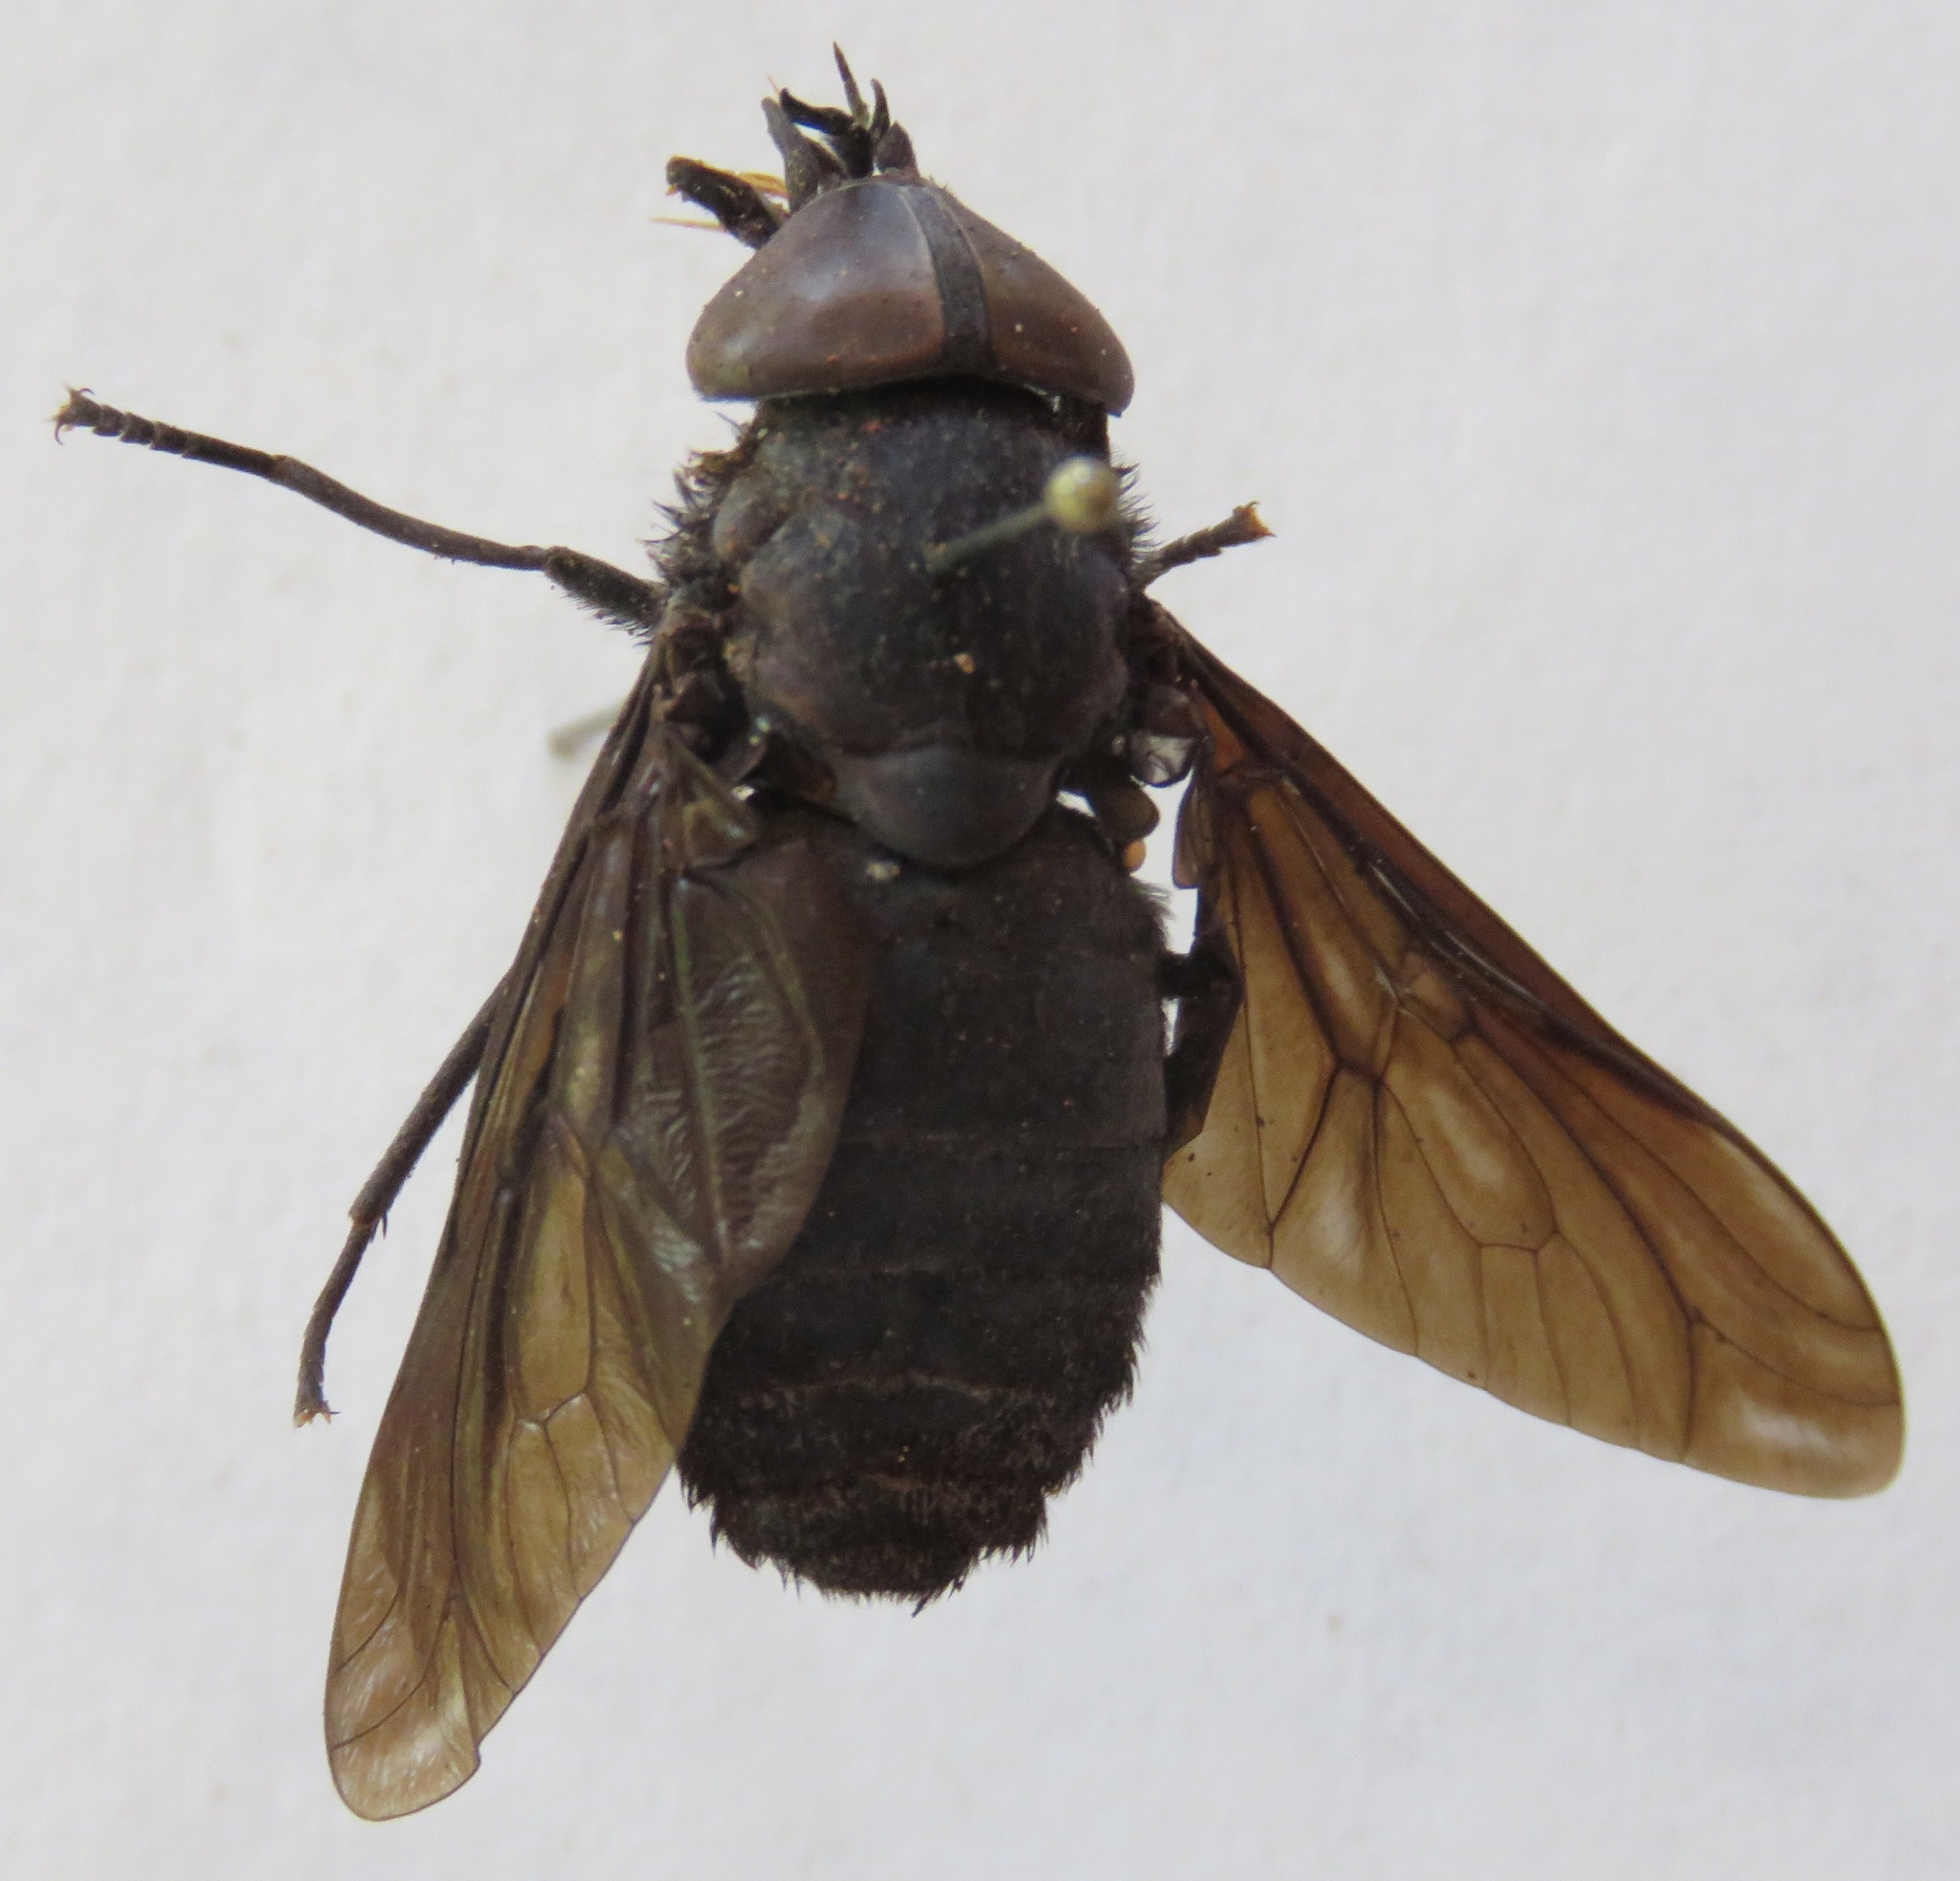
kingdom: Animalia
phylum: Arthropoda
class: Insecta
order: Diptera
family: Tabanidae
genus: Tabanus
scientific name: Tabanus erebus
